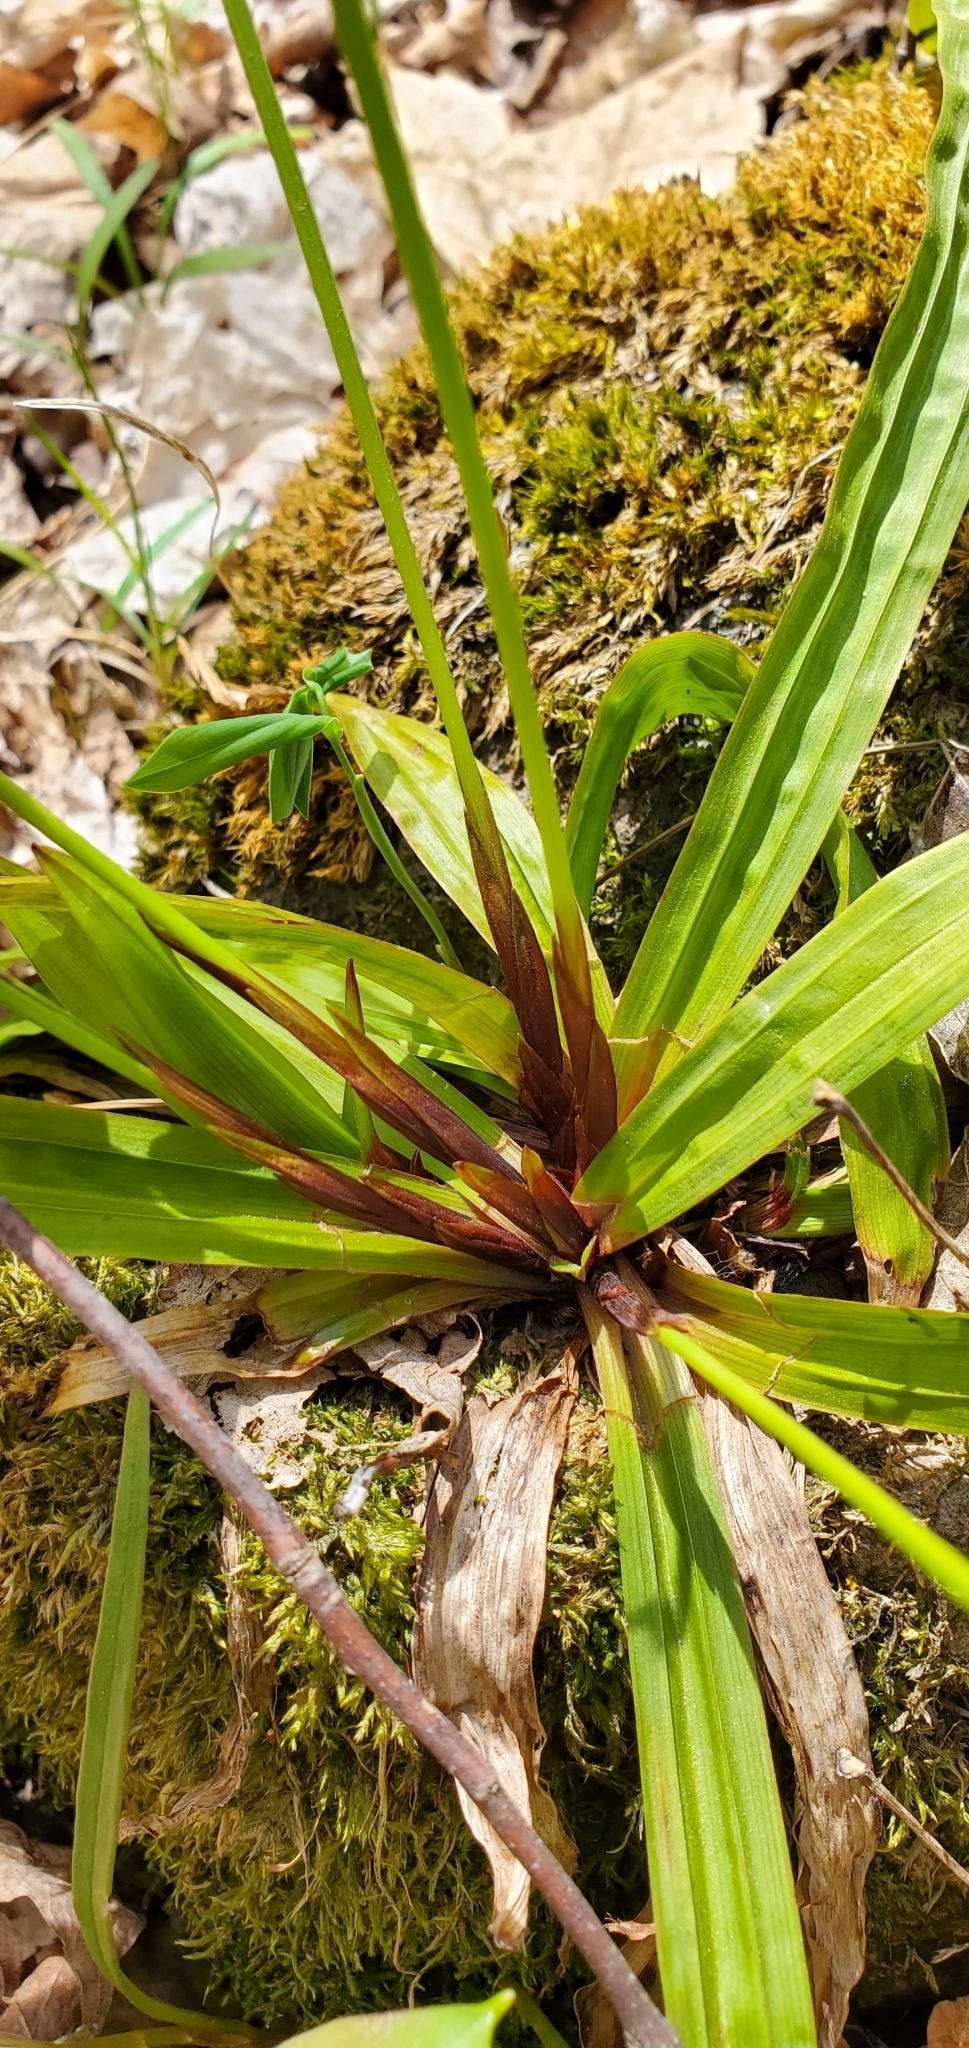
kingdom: Plantae
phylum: Tracheophyta
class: Liliopsida
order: Poales
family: Cyperaceae
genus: Carex
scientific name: Carex plantaginea
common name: Plantain-leaved sedge
